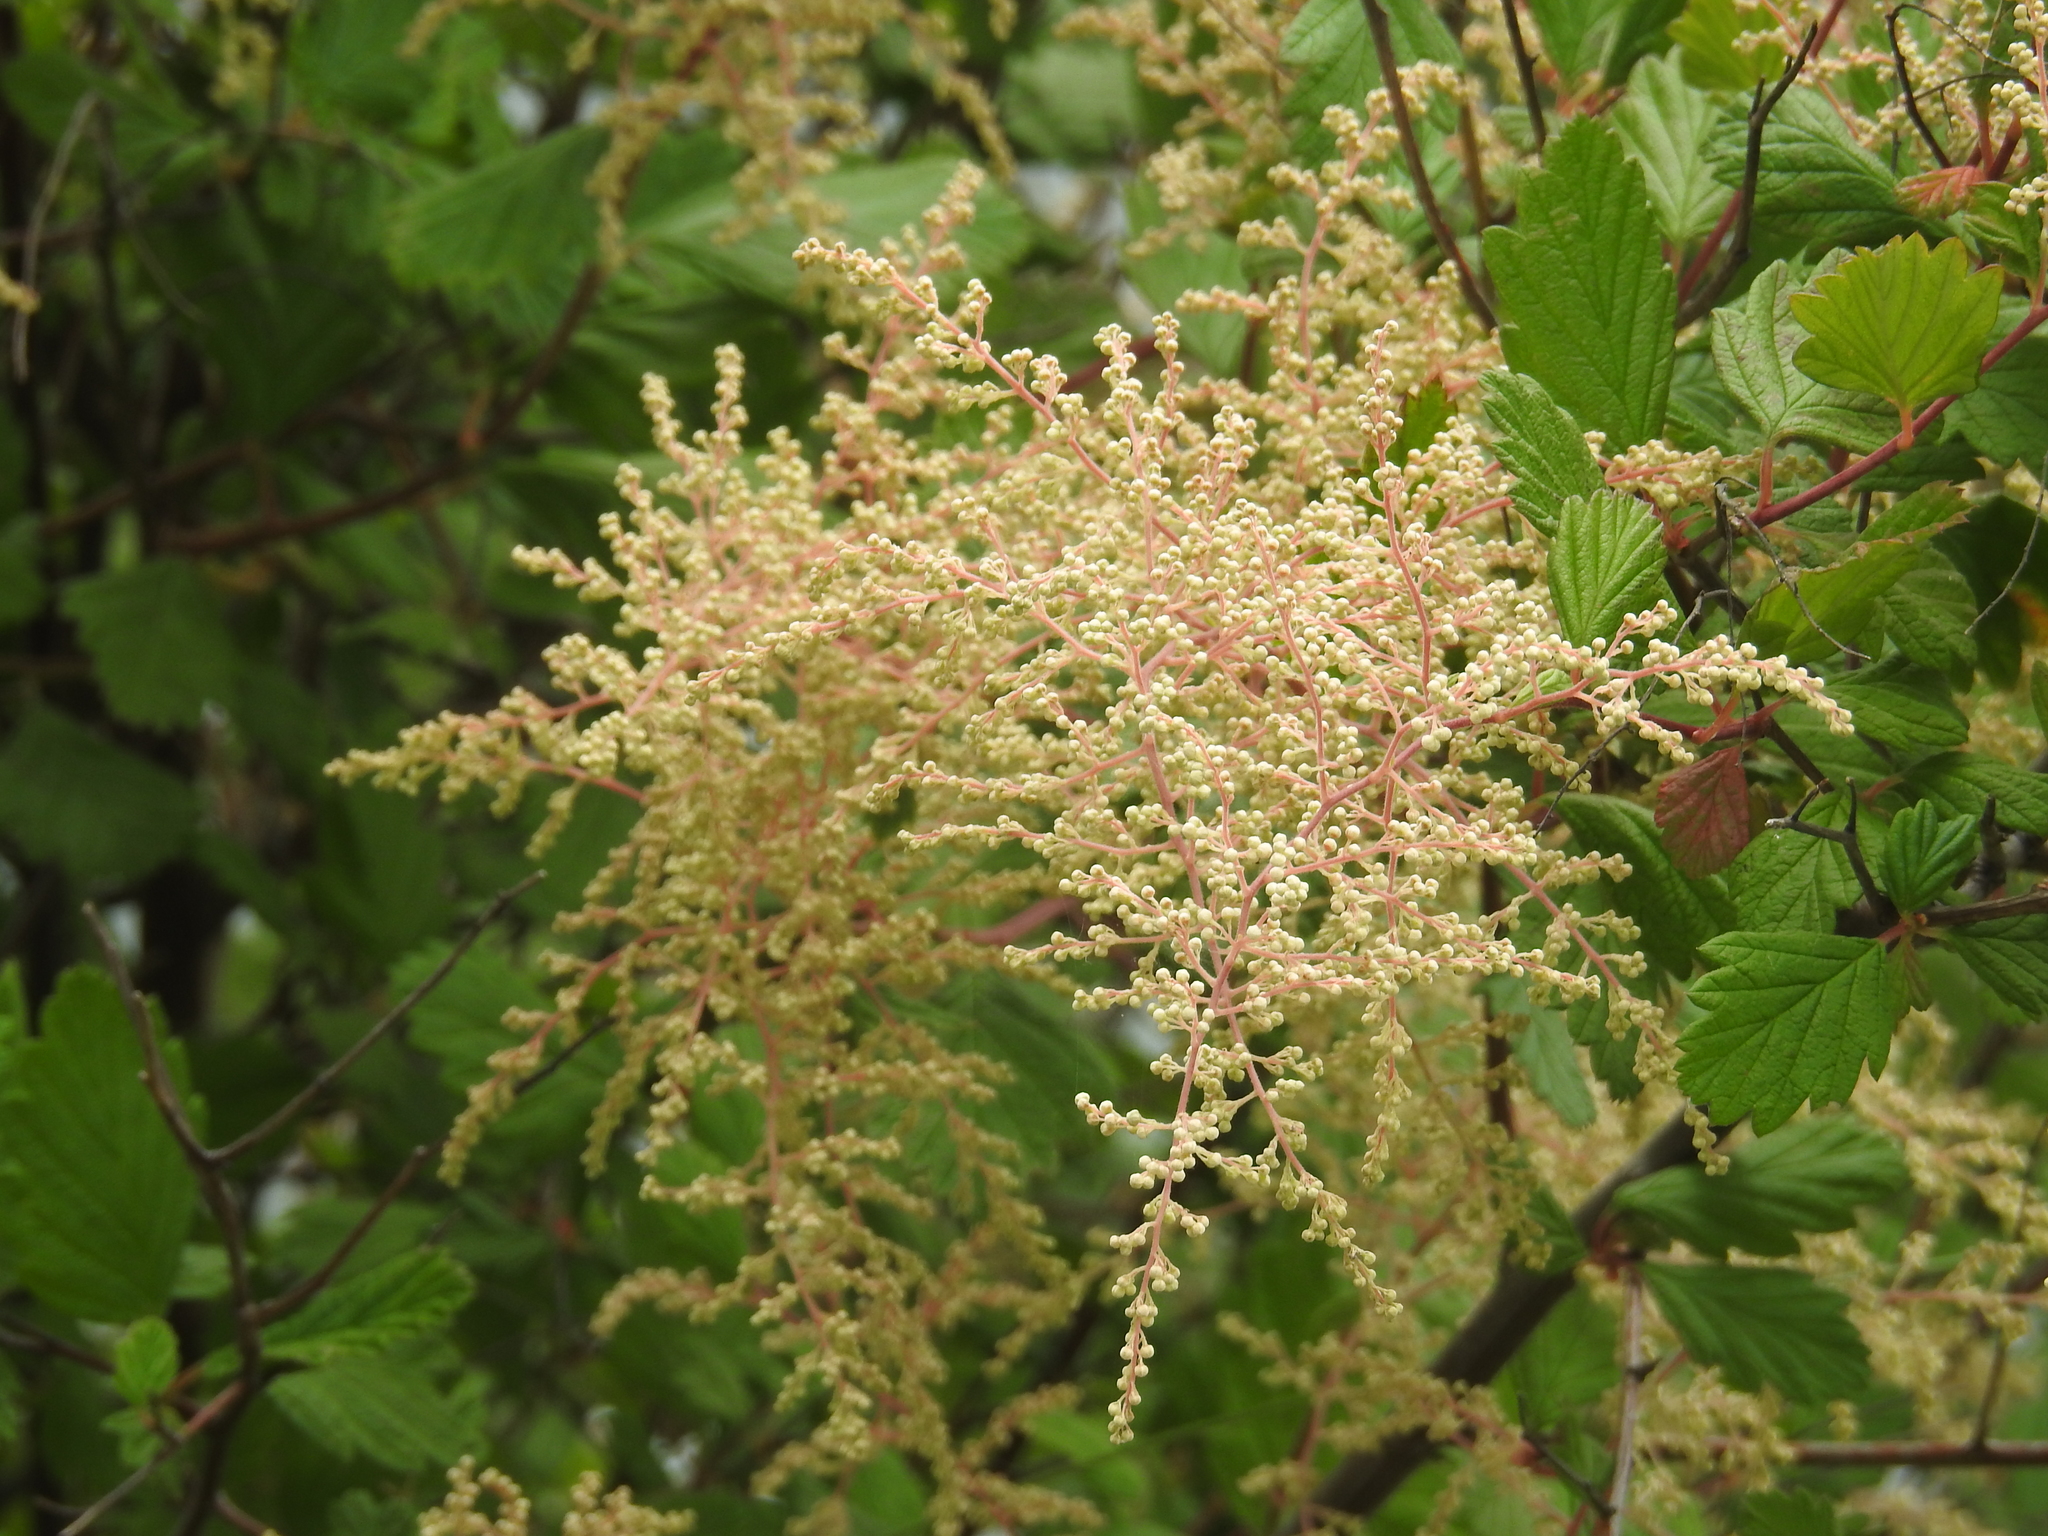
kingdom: Plantae
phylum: Tracheophyta
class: Magnoliopsida
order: Rosales
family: Rosaceae
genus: Holodiscus
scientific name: Holodiscus discolor
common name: Oceanspray
